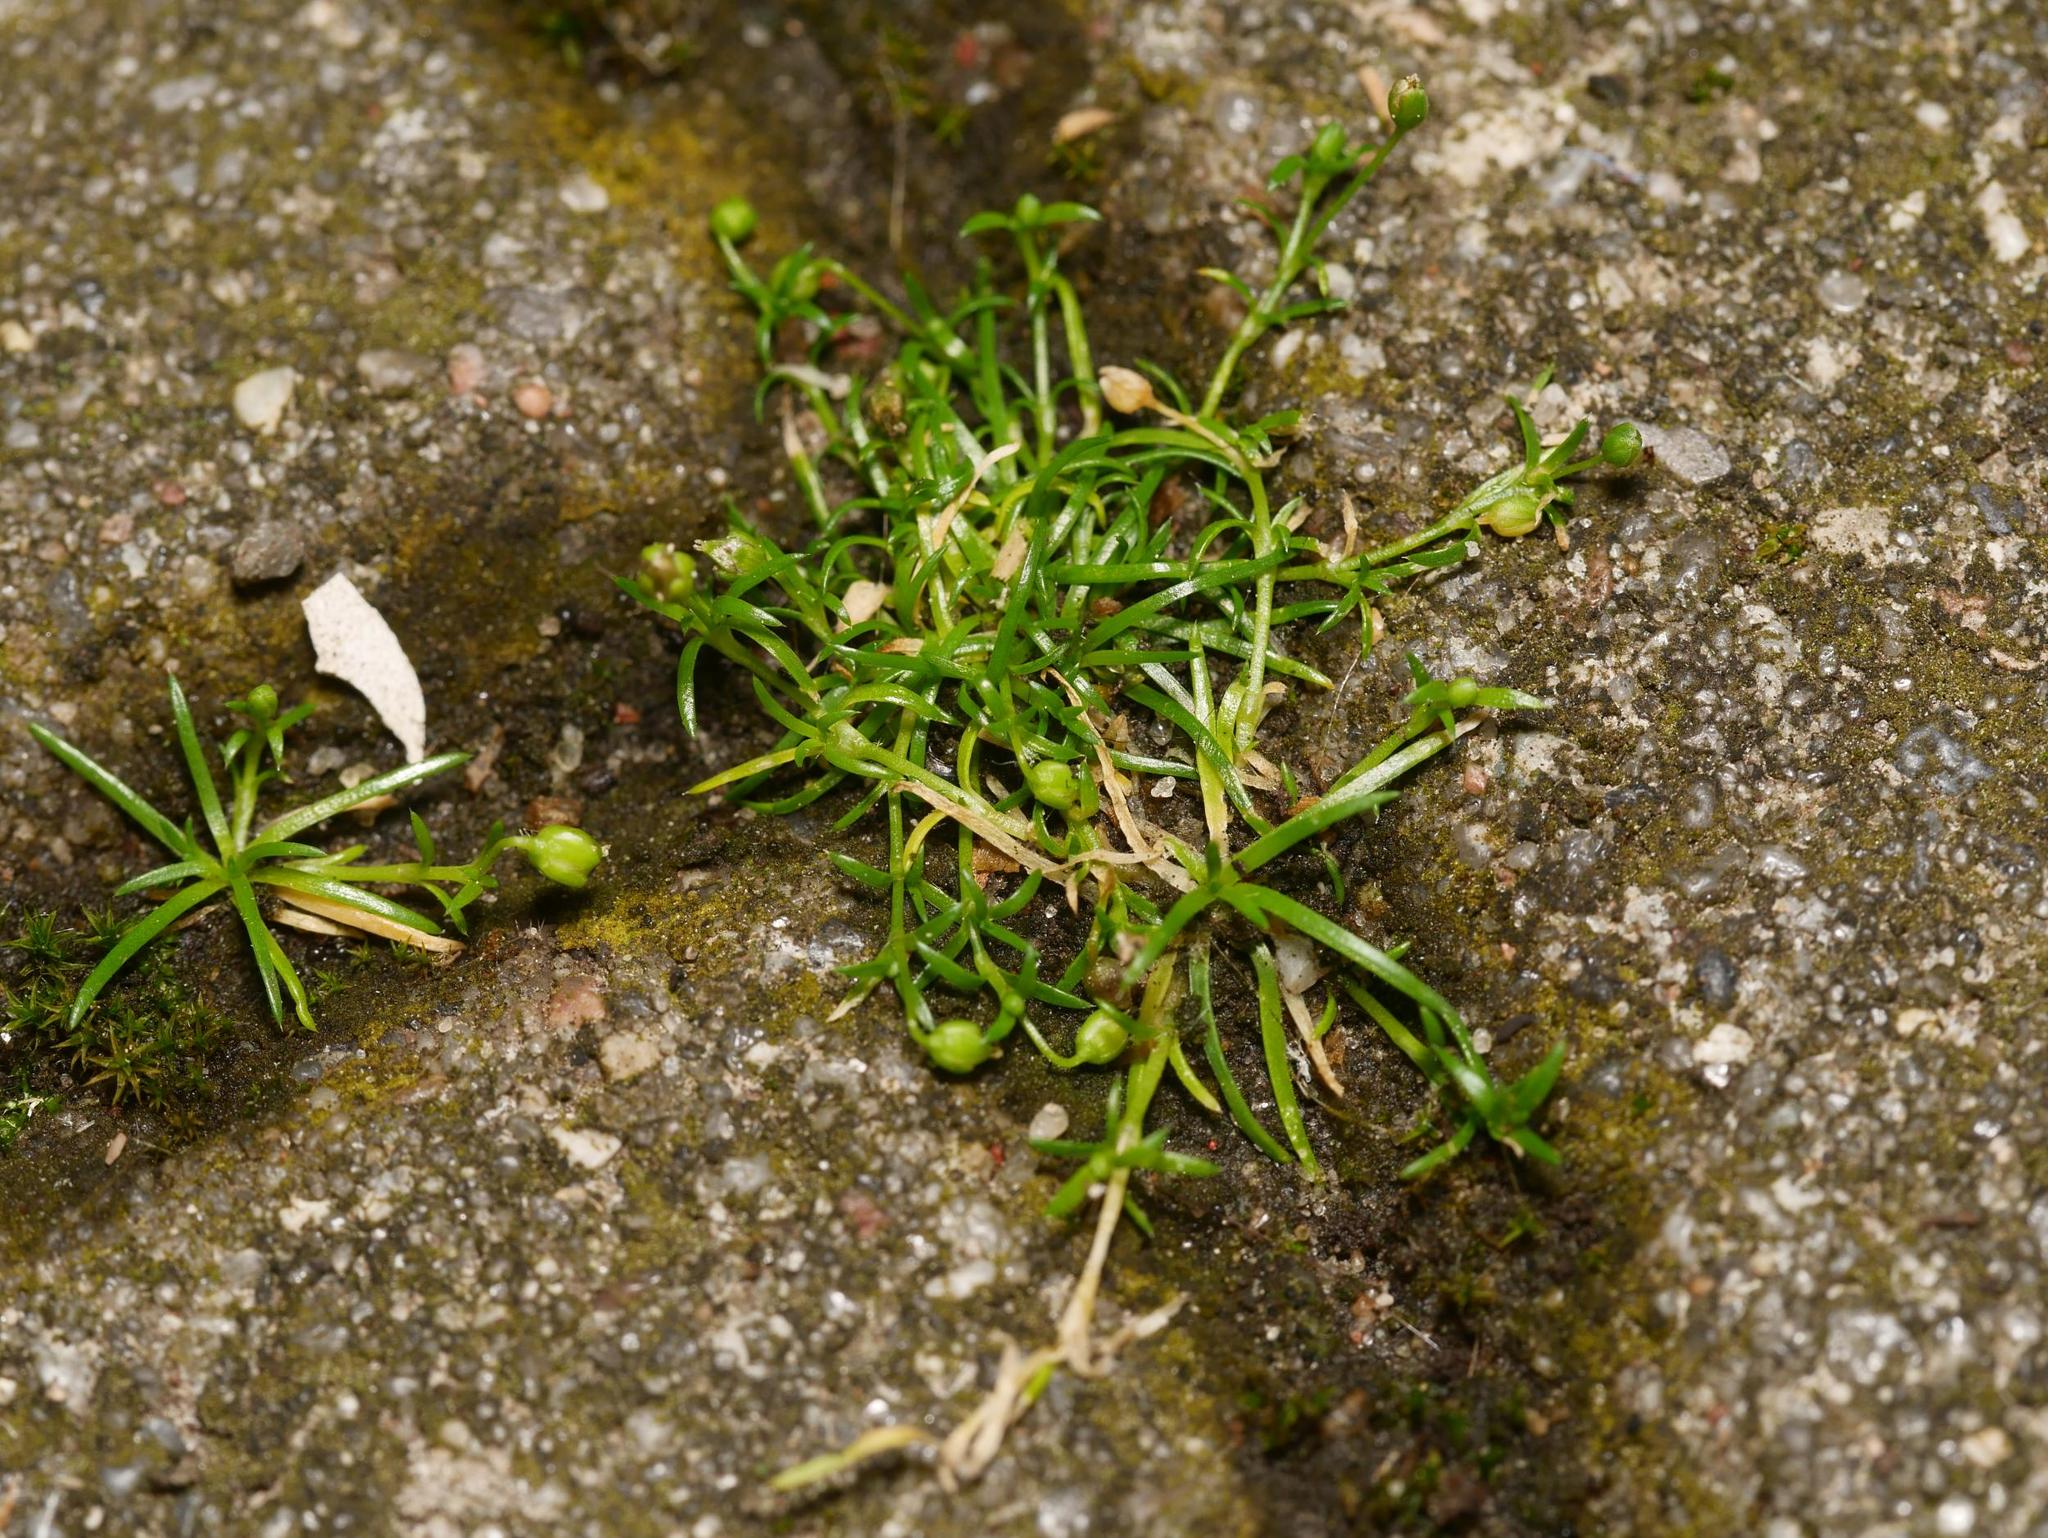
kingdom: Plantae
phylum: Tracheophyta
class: Magnoliopsida
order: Caryophyllales
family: Caryophyllaceae
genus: Sagina
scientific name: Sagina procumbens
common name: Procumbent pearlwort
